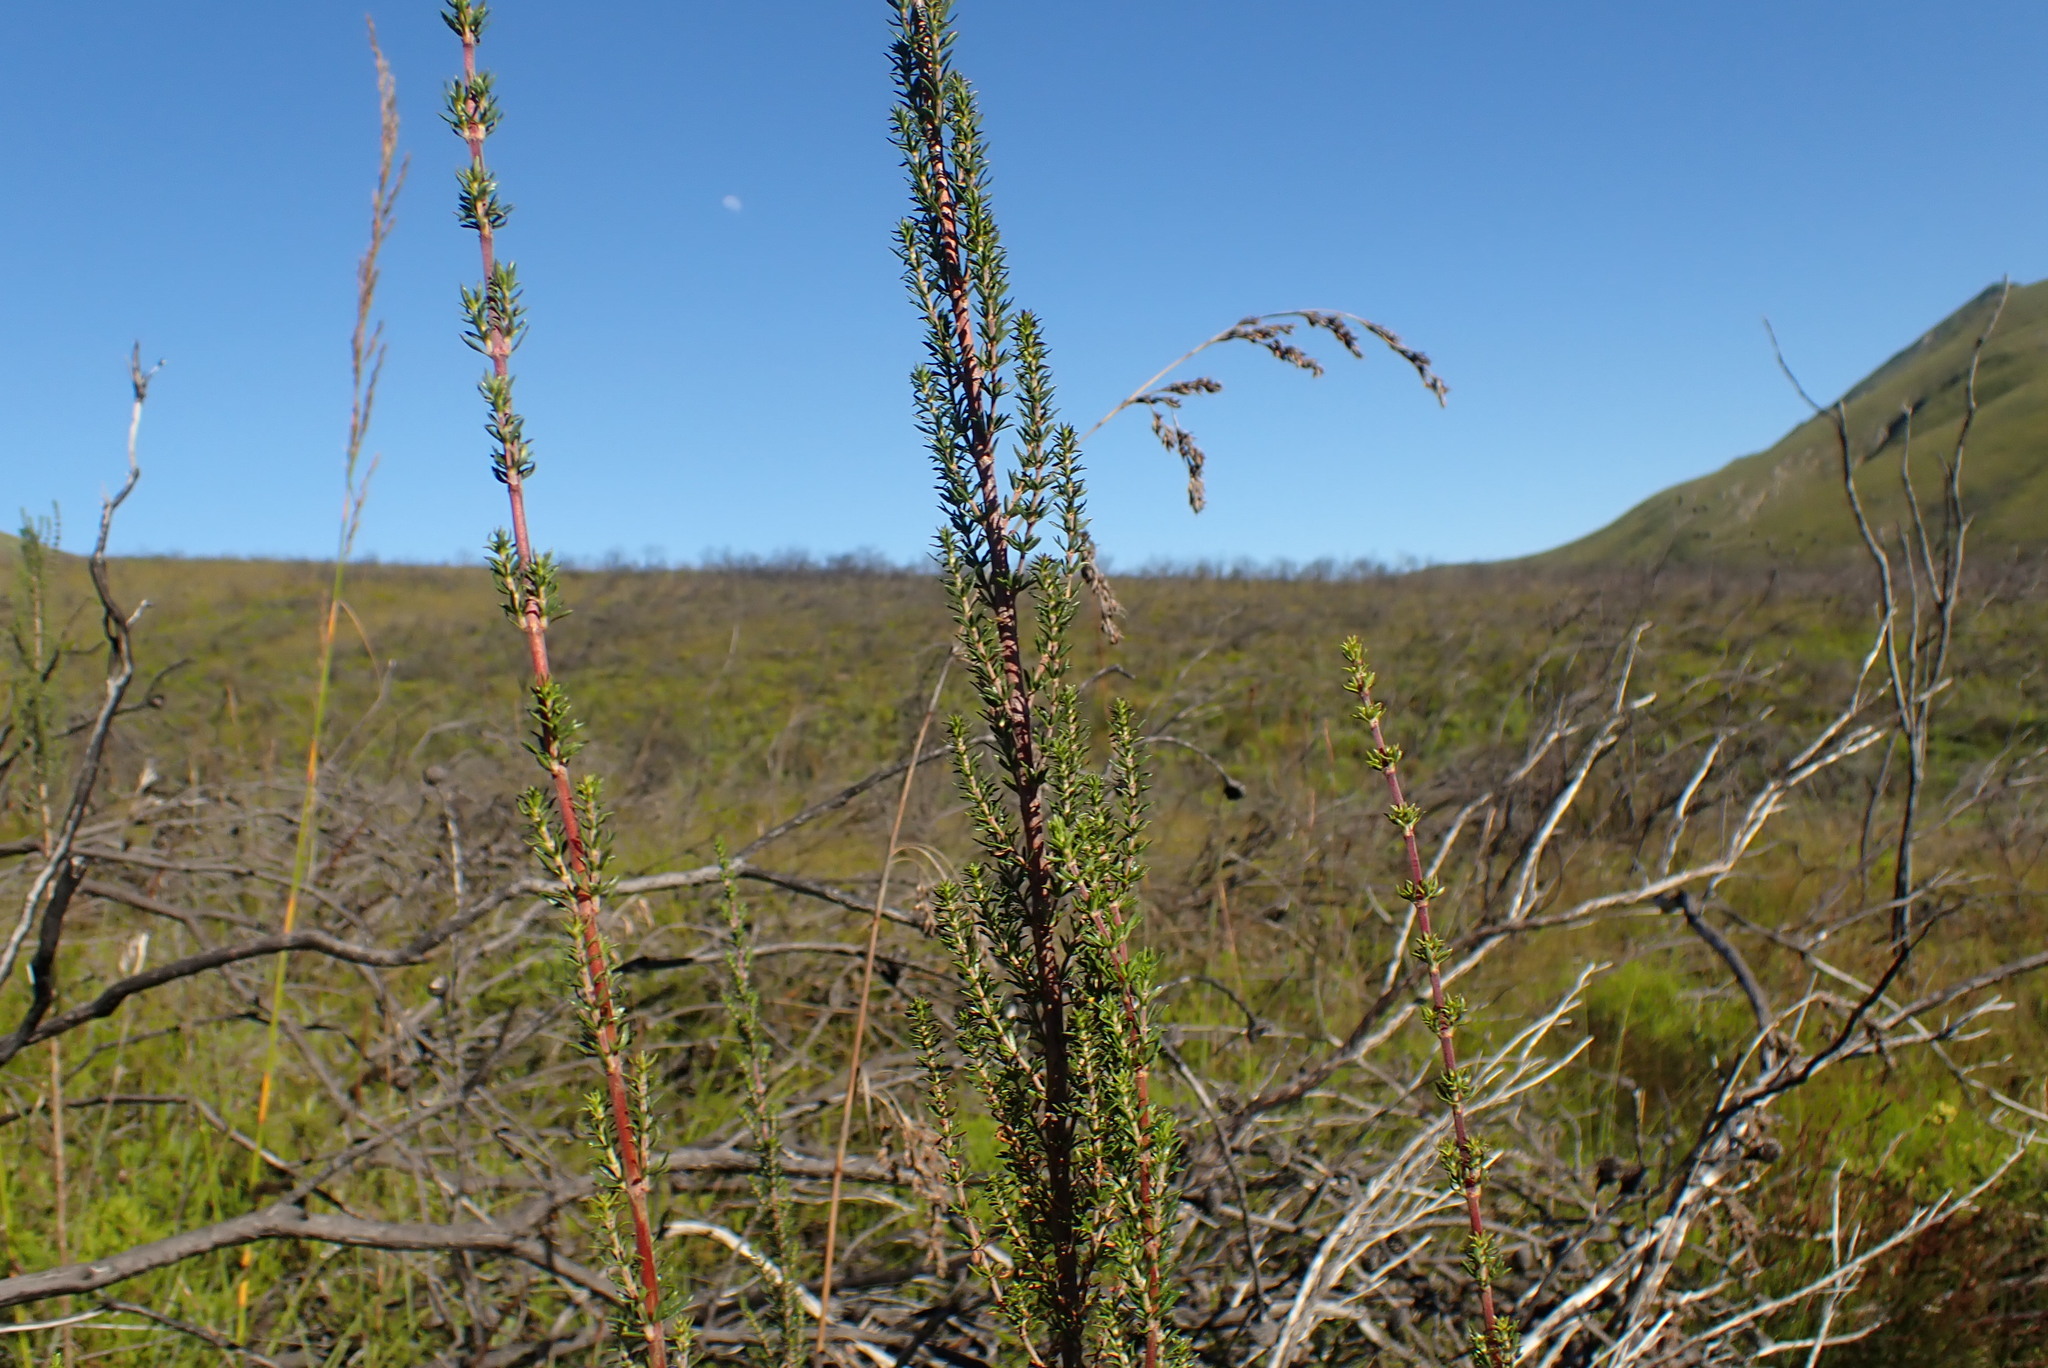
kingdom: Plantae
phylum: Tracheophyta
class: Magnoliopsida
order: Gentianales
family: Rubiaceae
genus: Anthospermum
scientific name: Anthospermum aethiopicum
